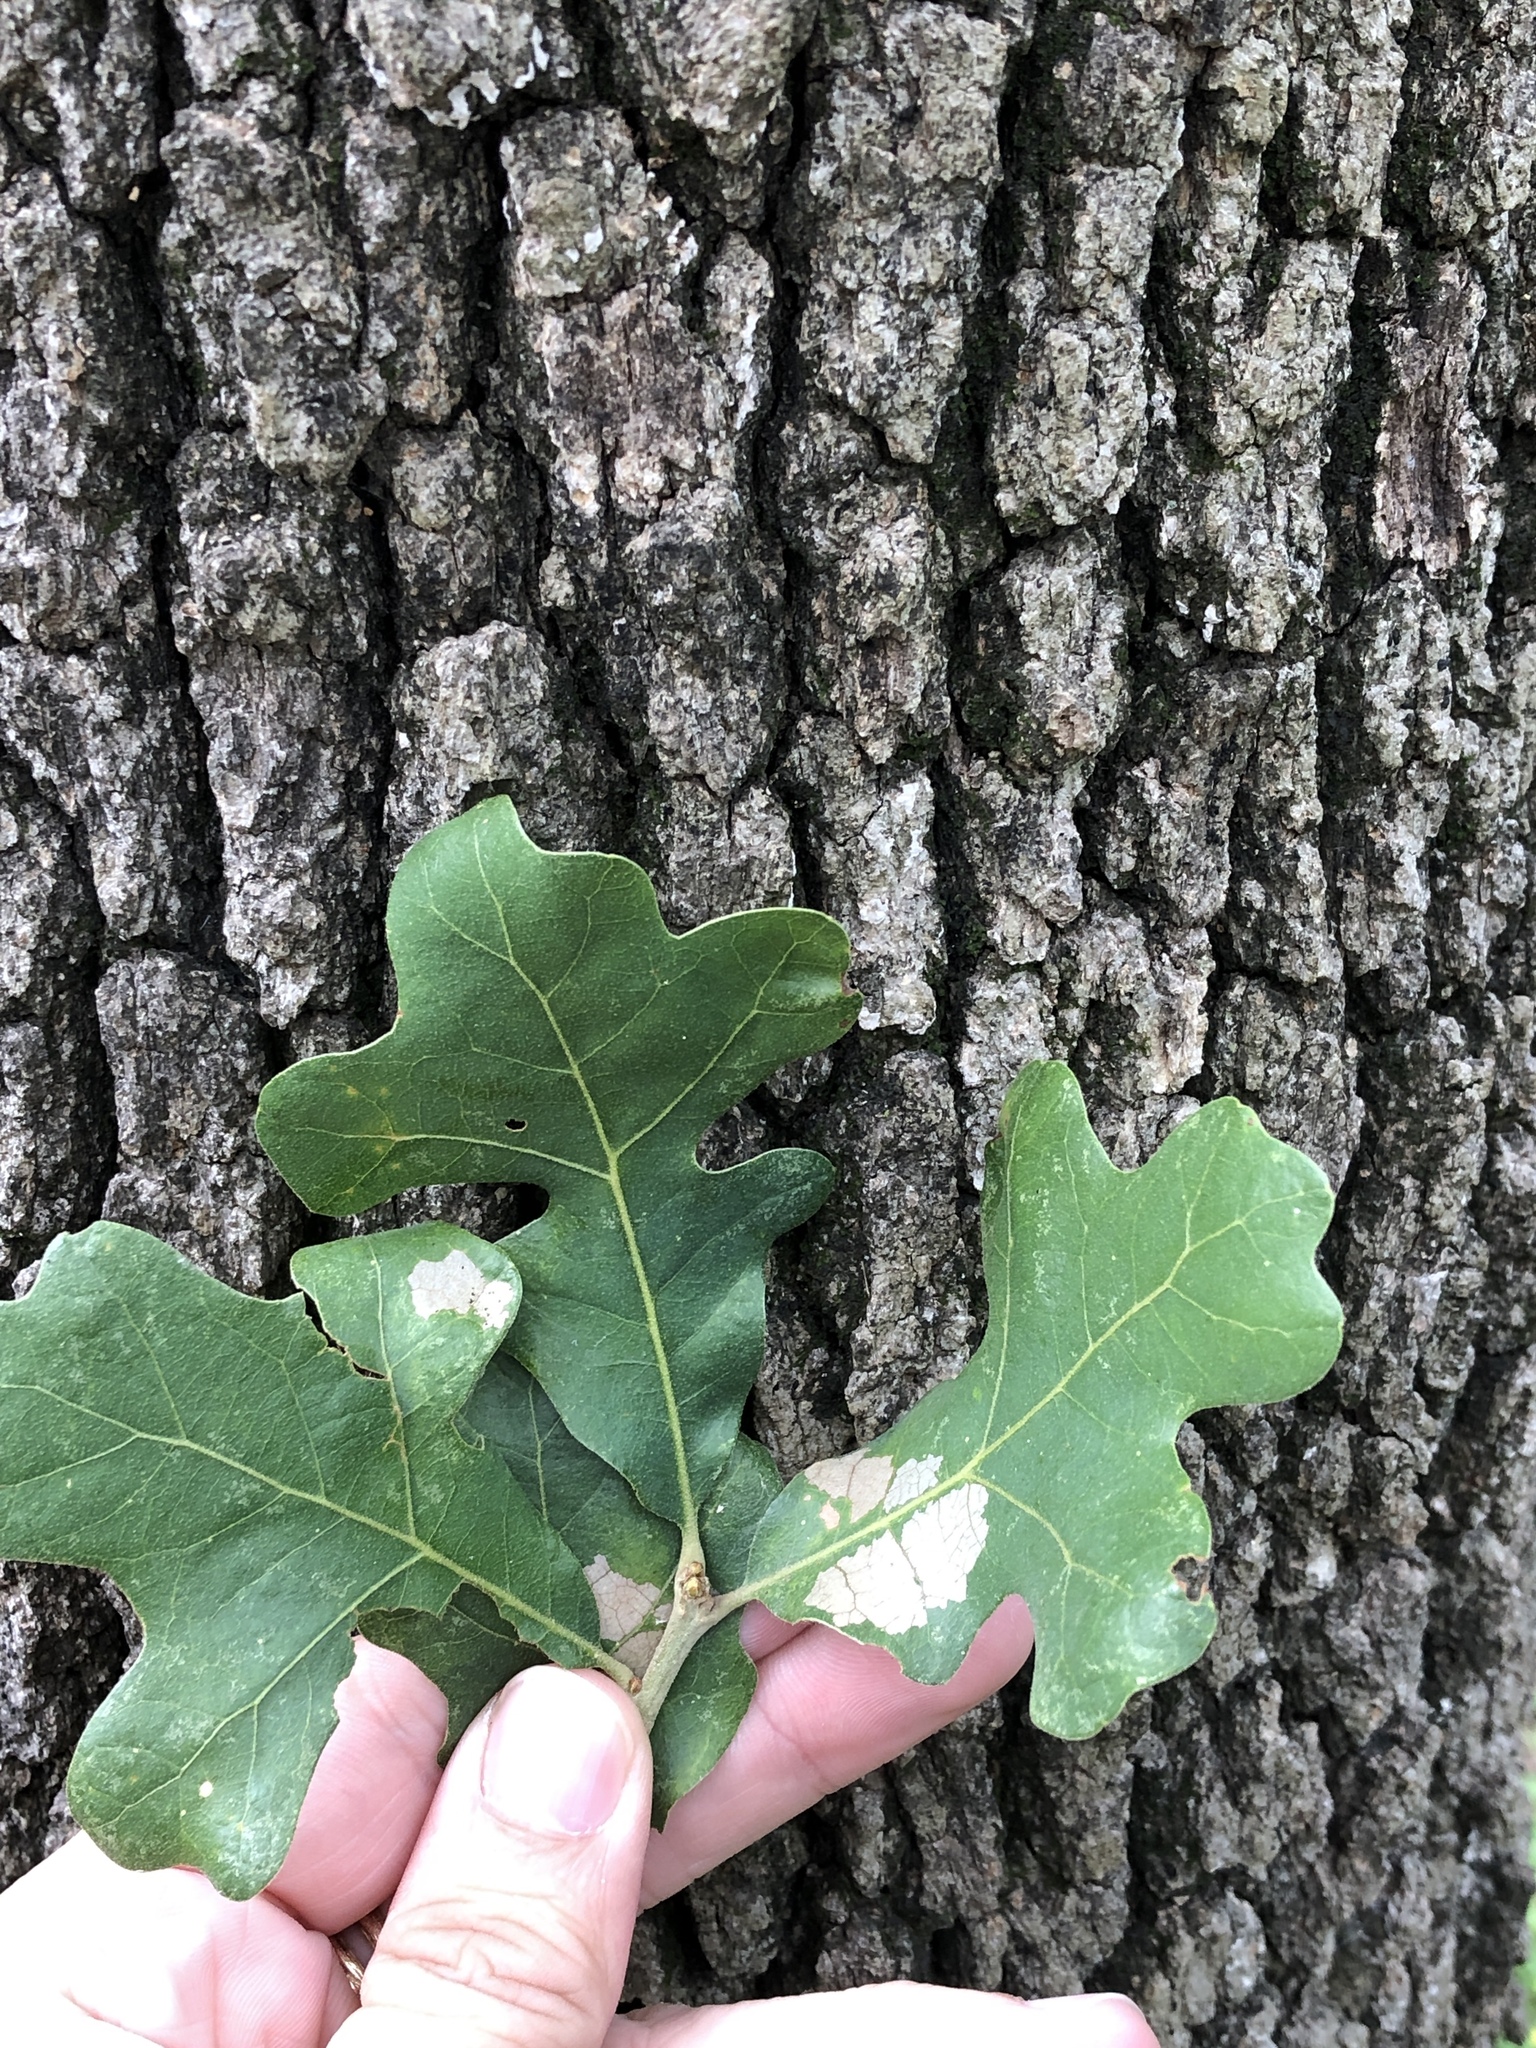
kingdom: Plantae
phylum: Tracheophyta
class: Magnoliopsida
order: Fagales
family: Fagaceae
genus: Quercus
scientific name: Quercus stellata
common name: Post oak
